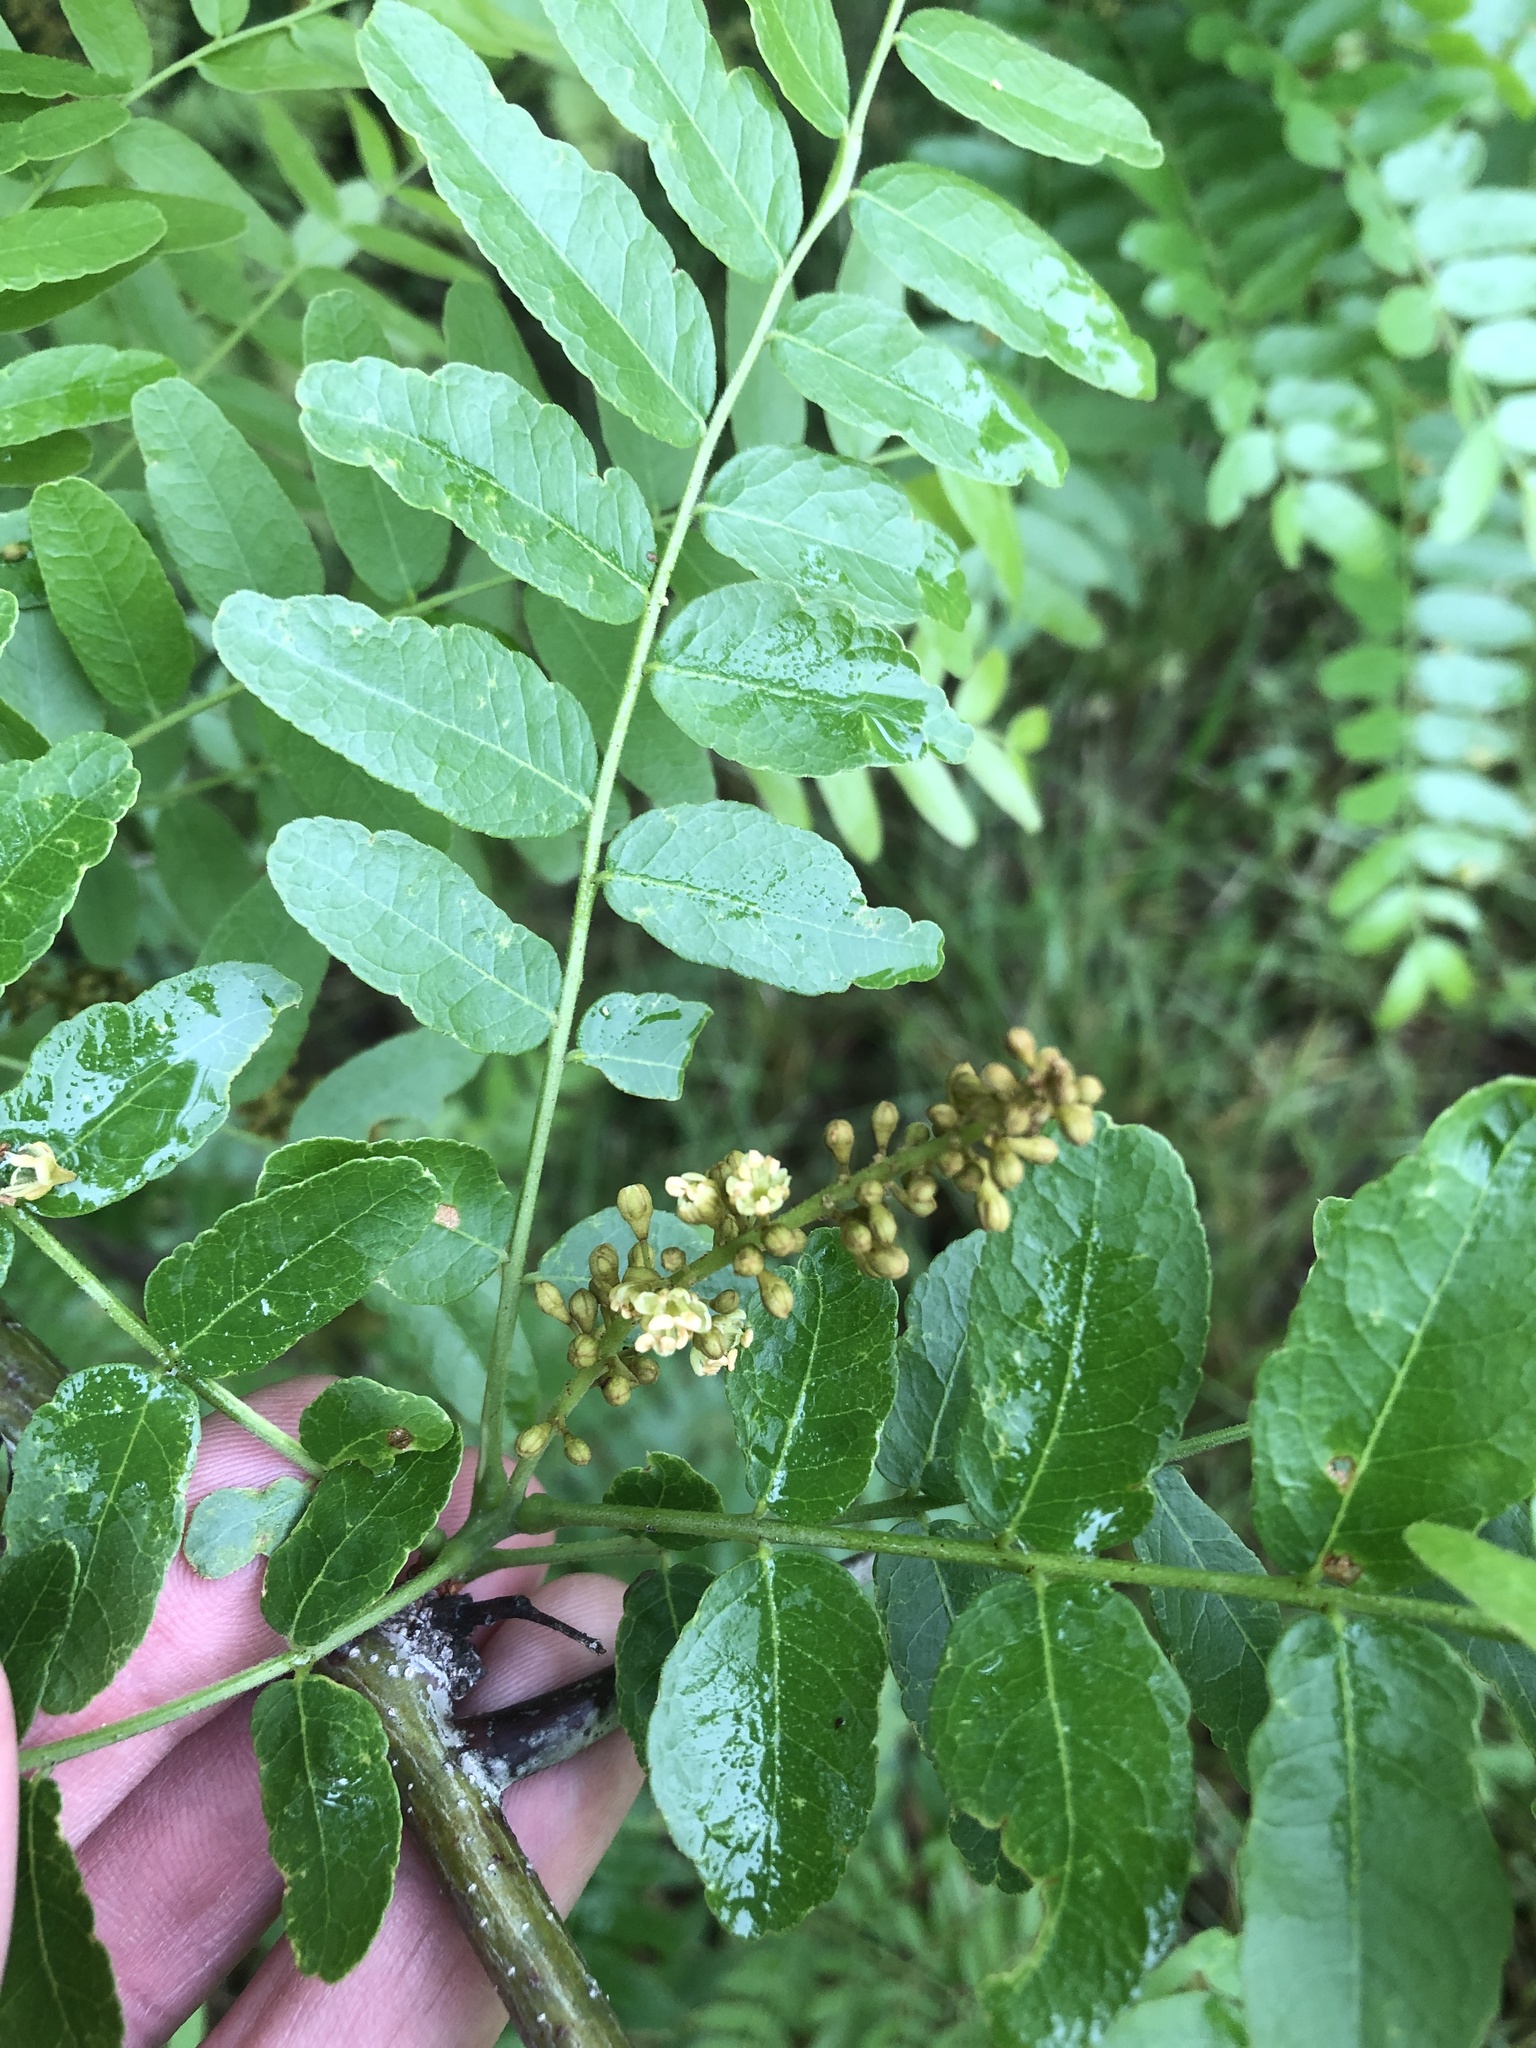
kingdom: Plantae
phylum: Tracheophyta
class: Magnoliopsida
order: Fabales
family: Fabaceae
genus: Gleditsia
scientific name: Gleditsia triacanthos
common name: Common honeylocust
